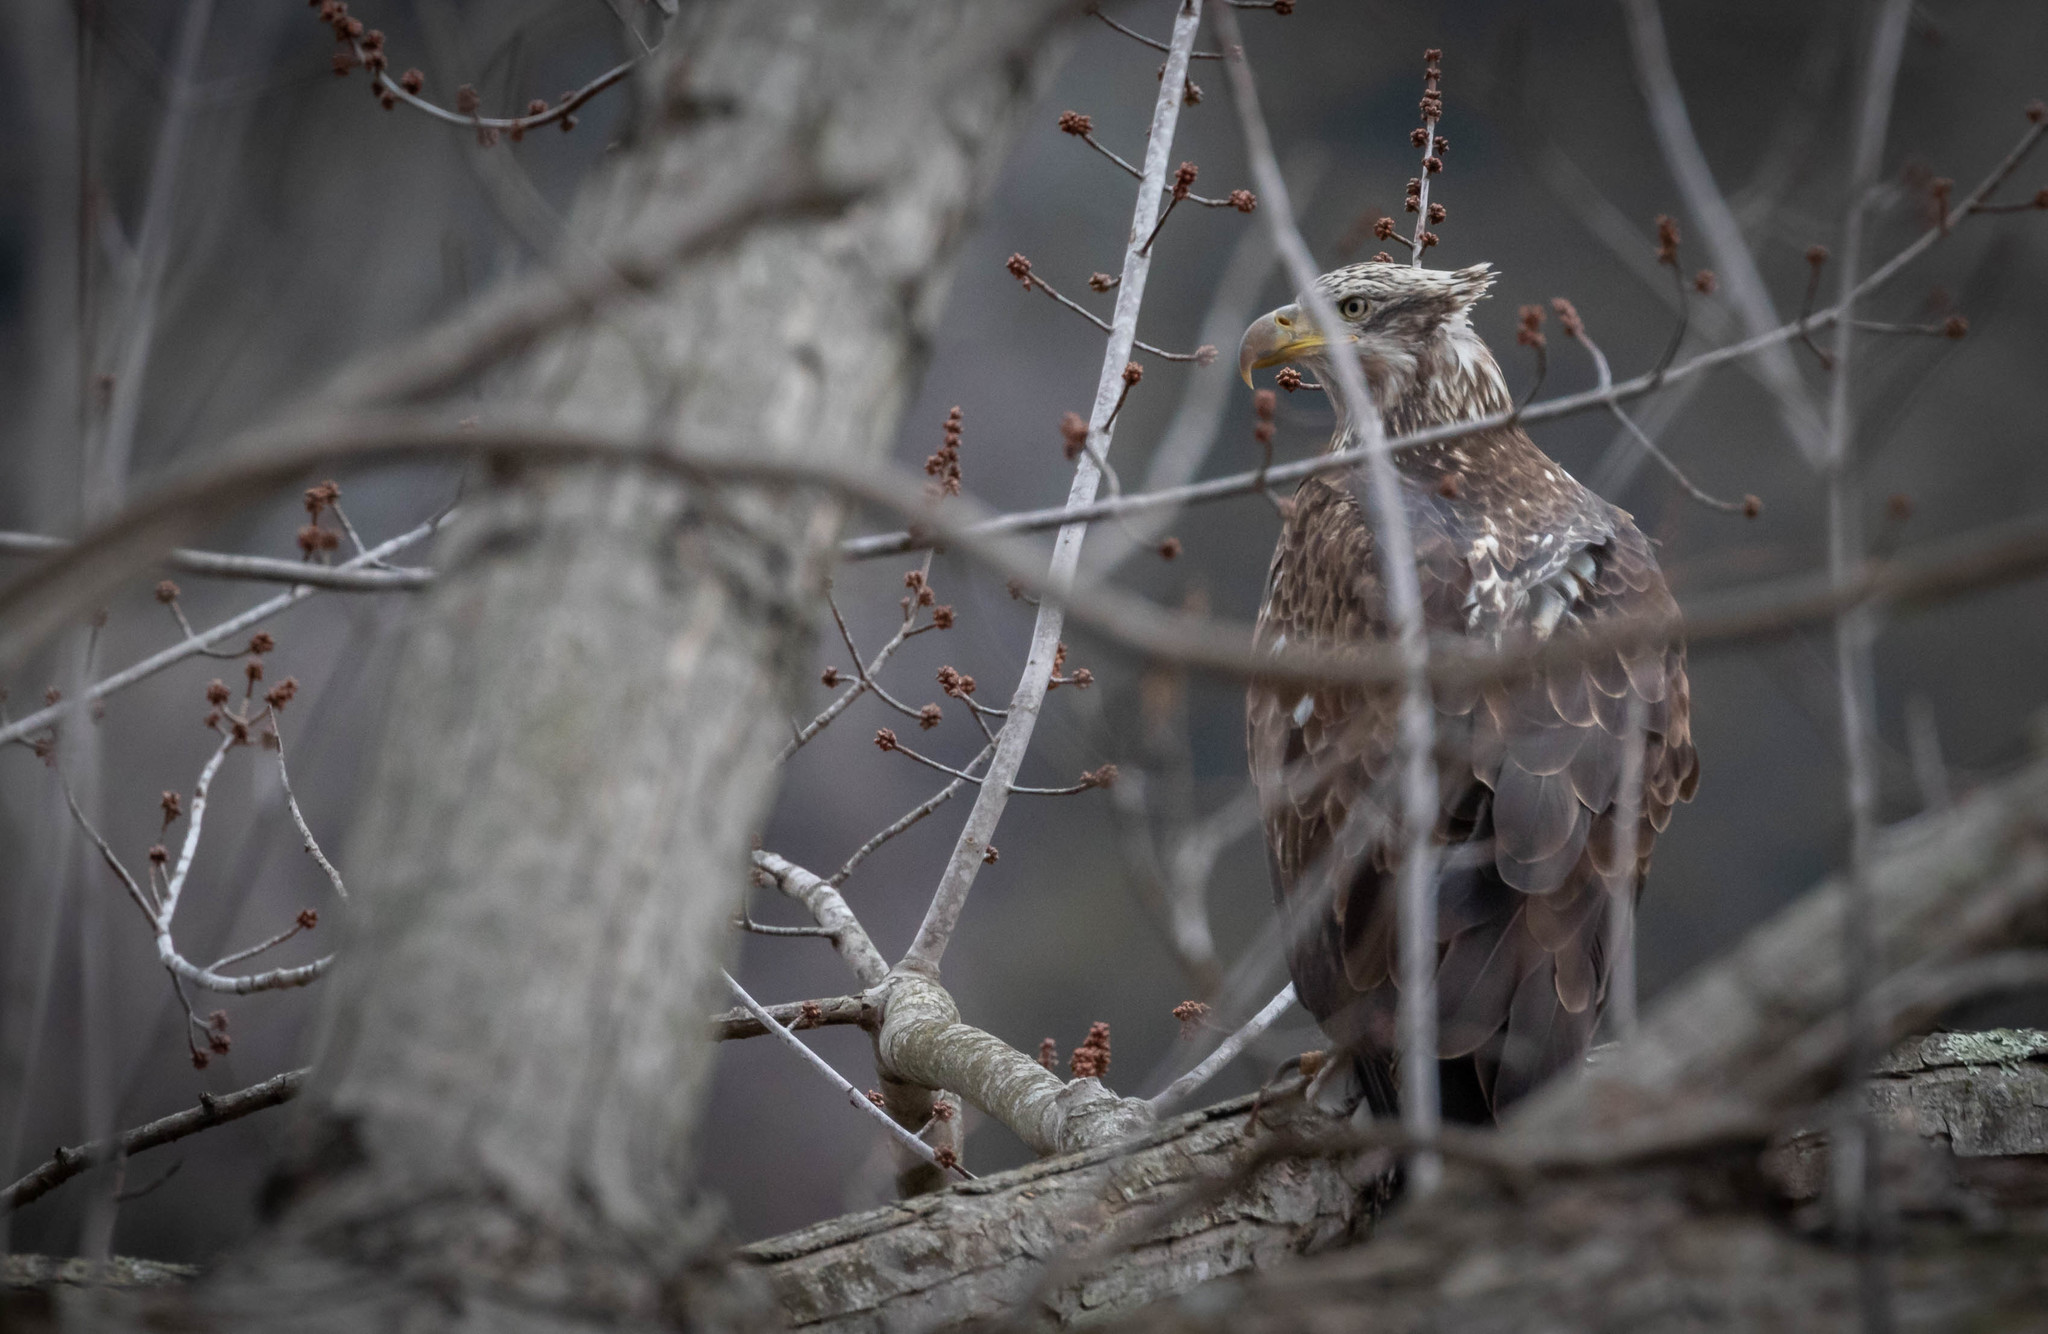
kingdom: Animalia
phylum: Chordata
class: Aves
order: Accipitriformes
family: Accipitridae
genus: Haliaeetus
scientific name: Haliaeetus leucocephalus
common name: Bald eagle
